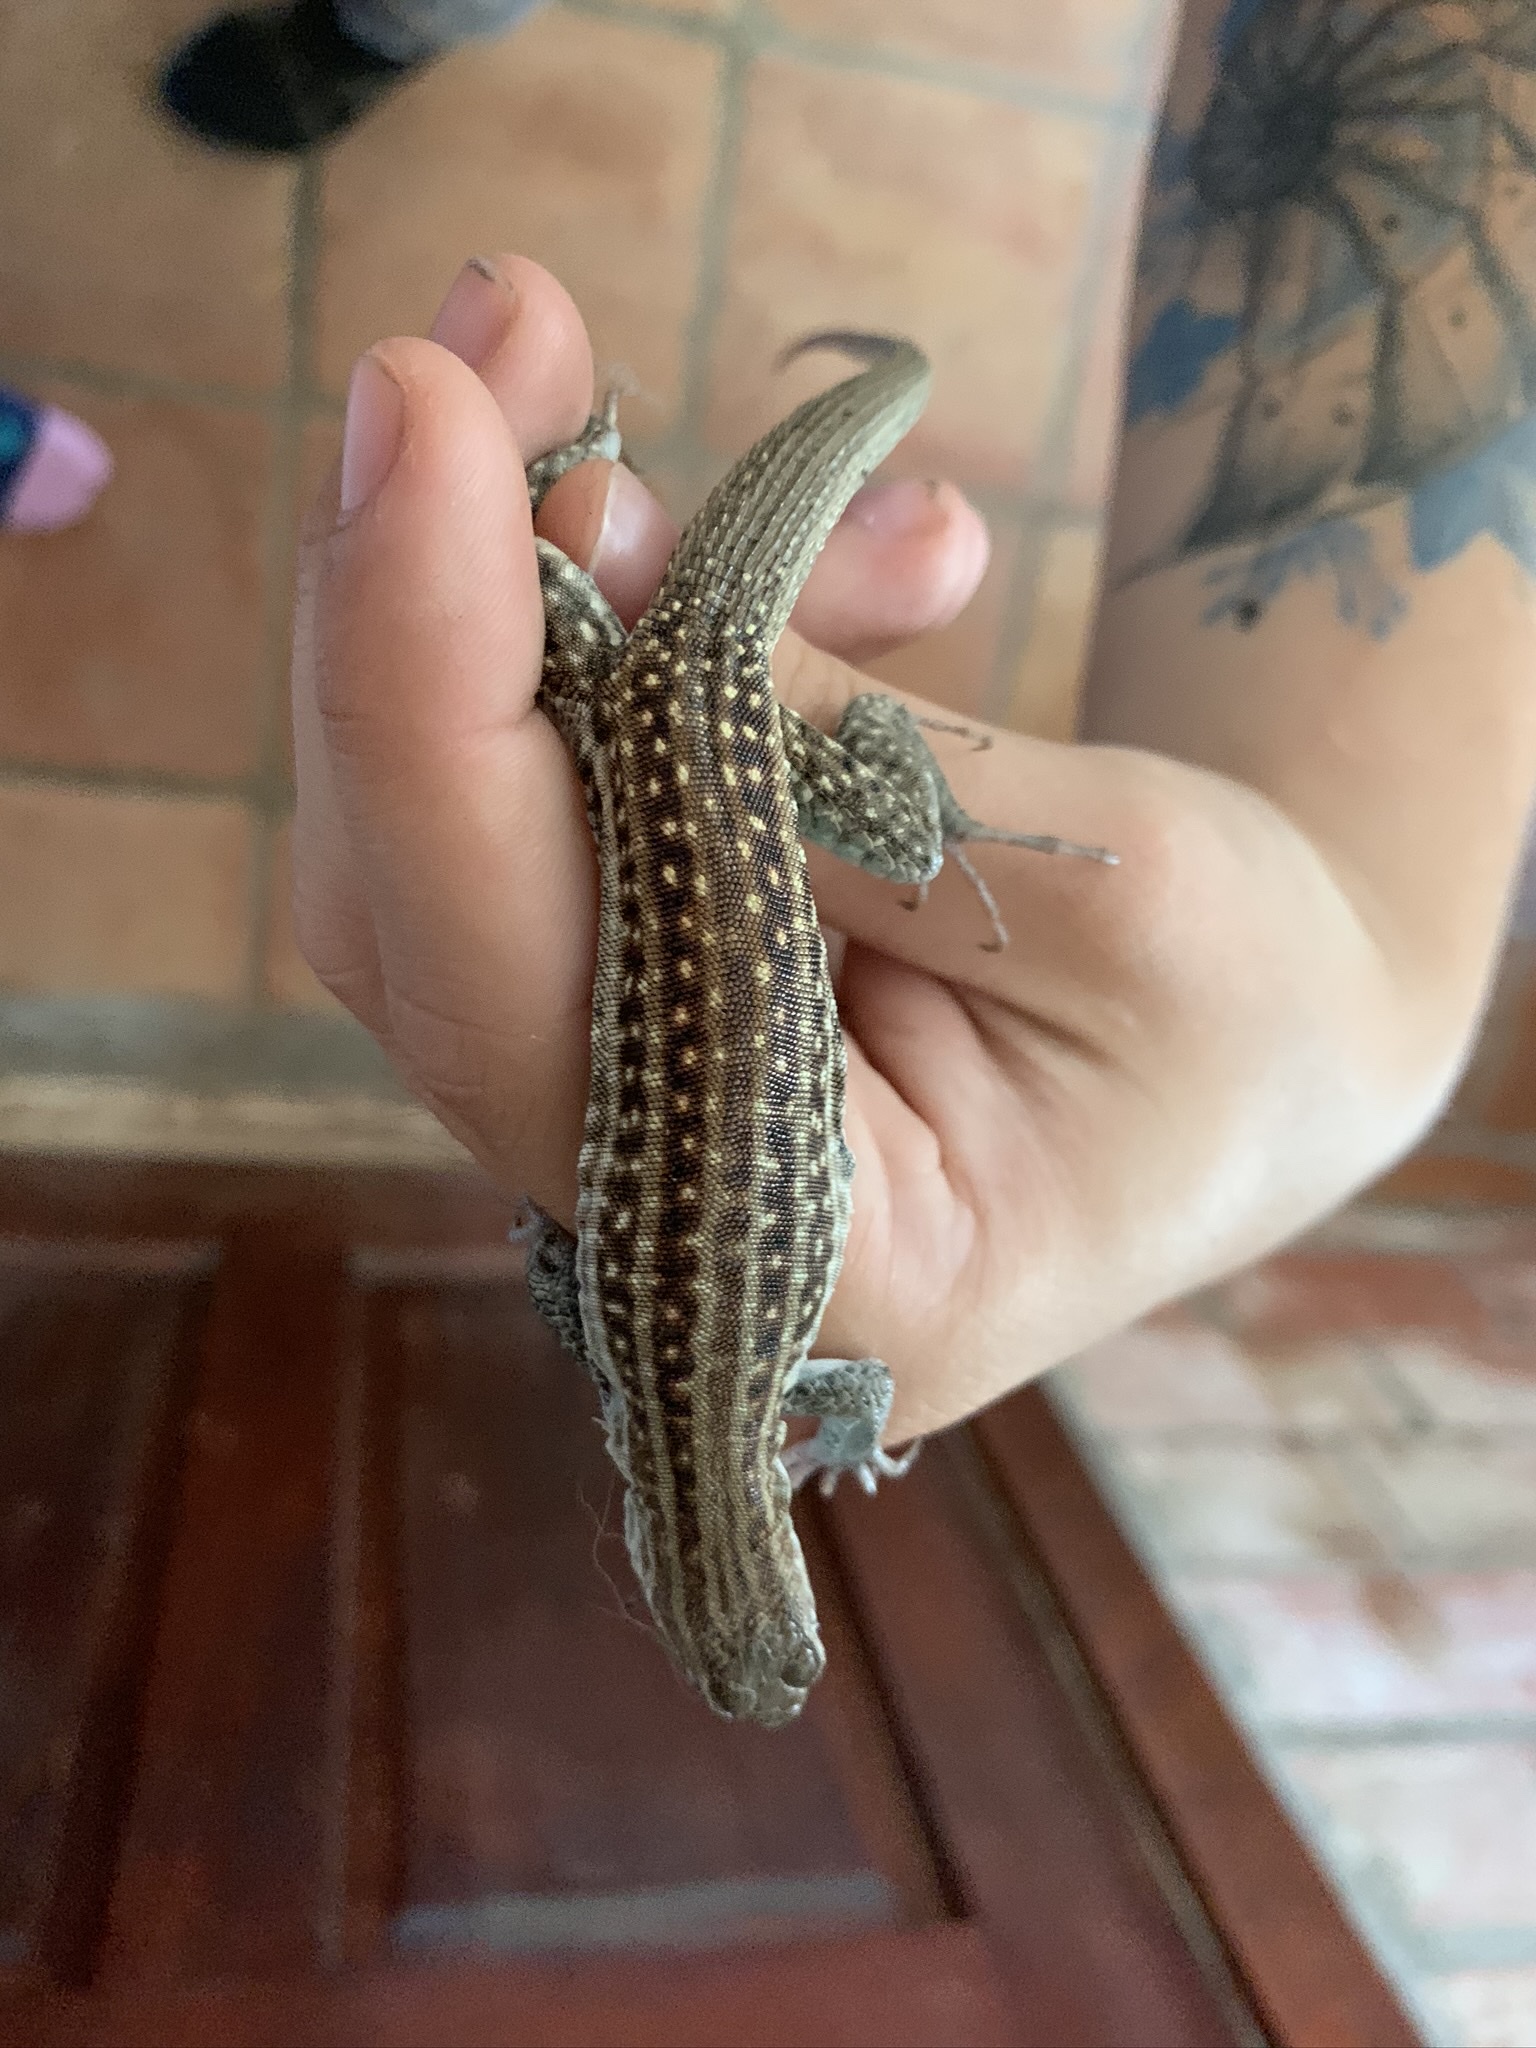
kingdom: Animalia
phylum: Chordata
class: Squamata
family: Teiidae
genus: Aspidoscelis
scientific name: Aspidoscelis exsanguis
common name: Chihuahuan spotted whiptail
